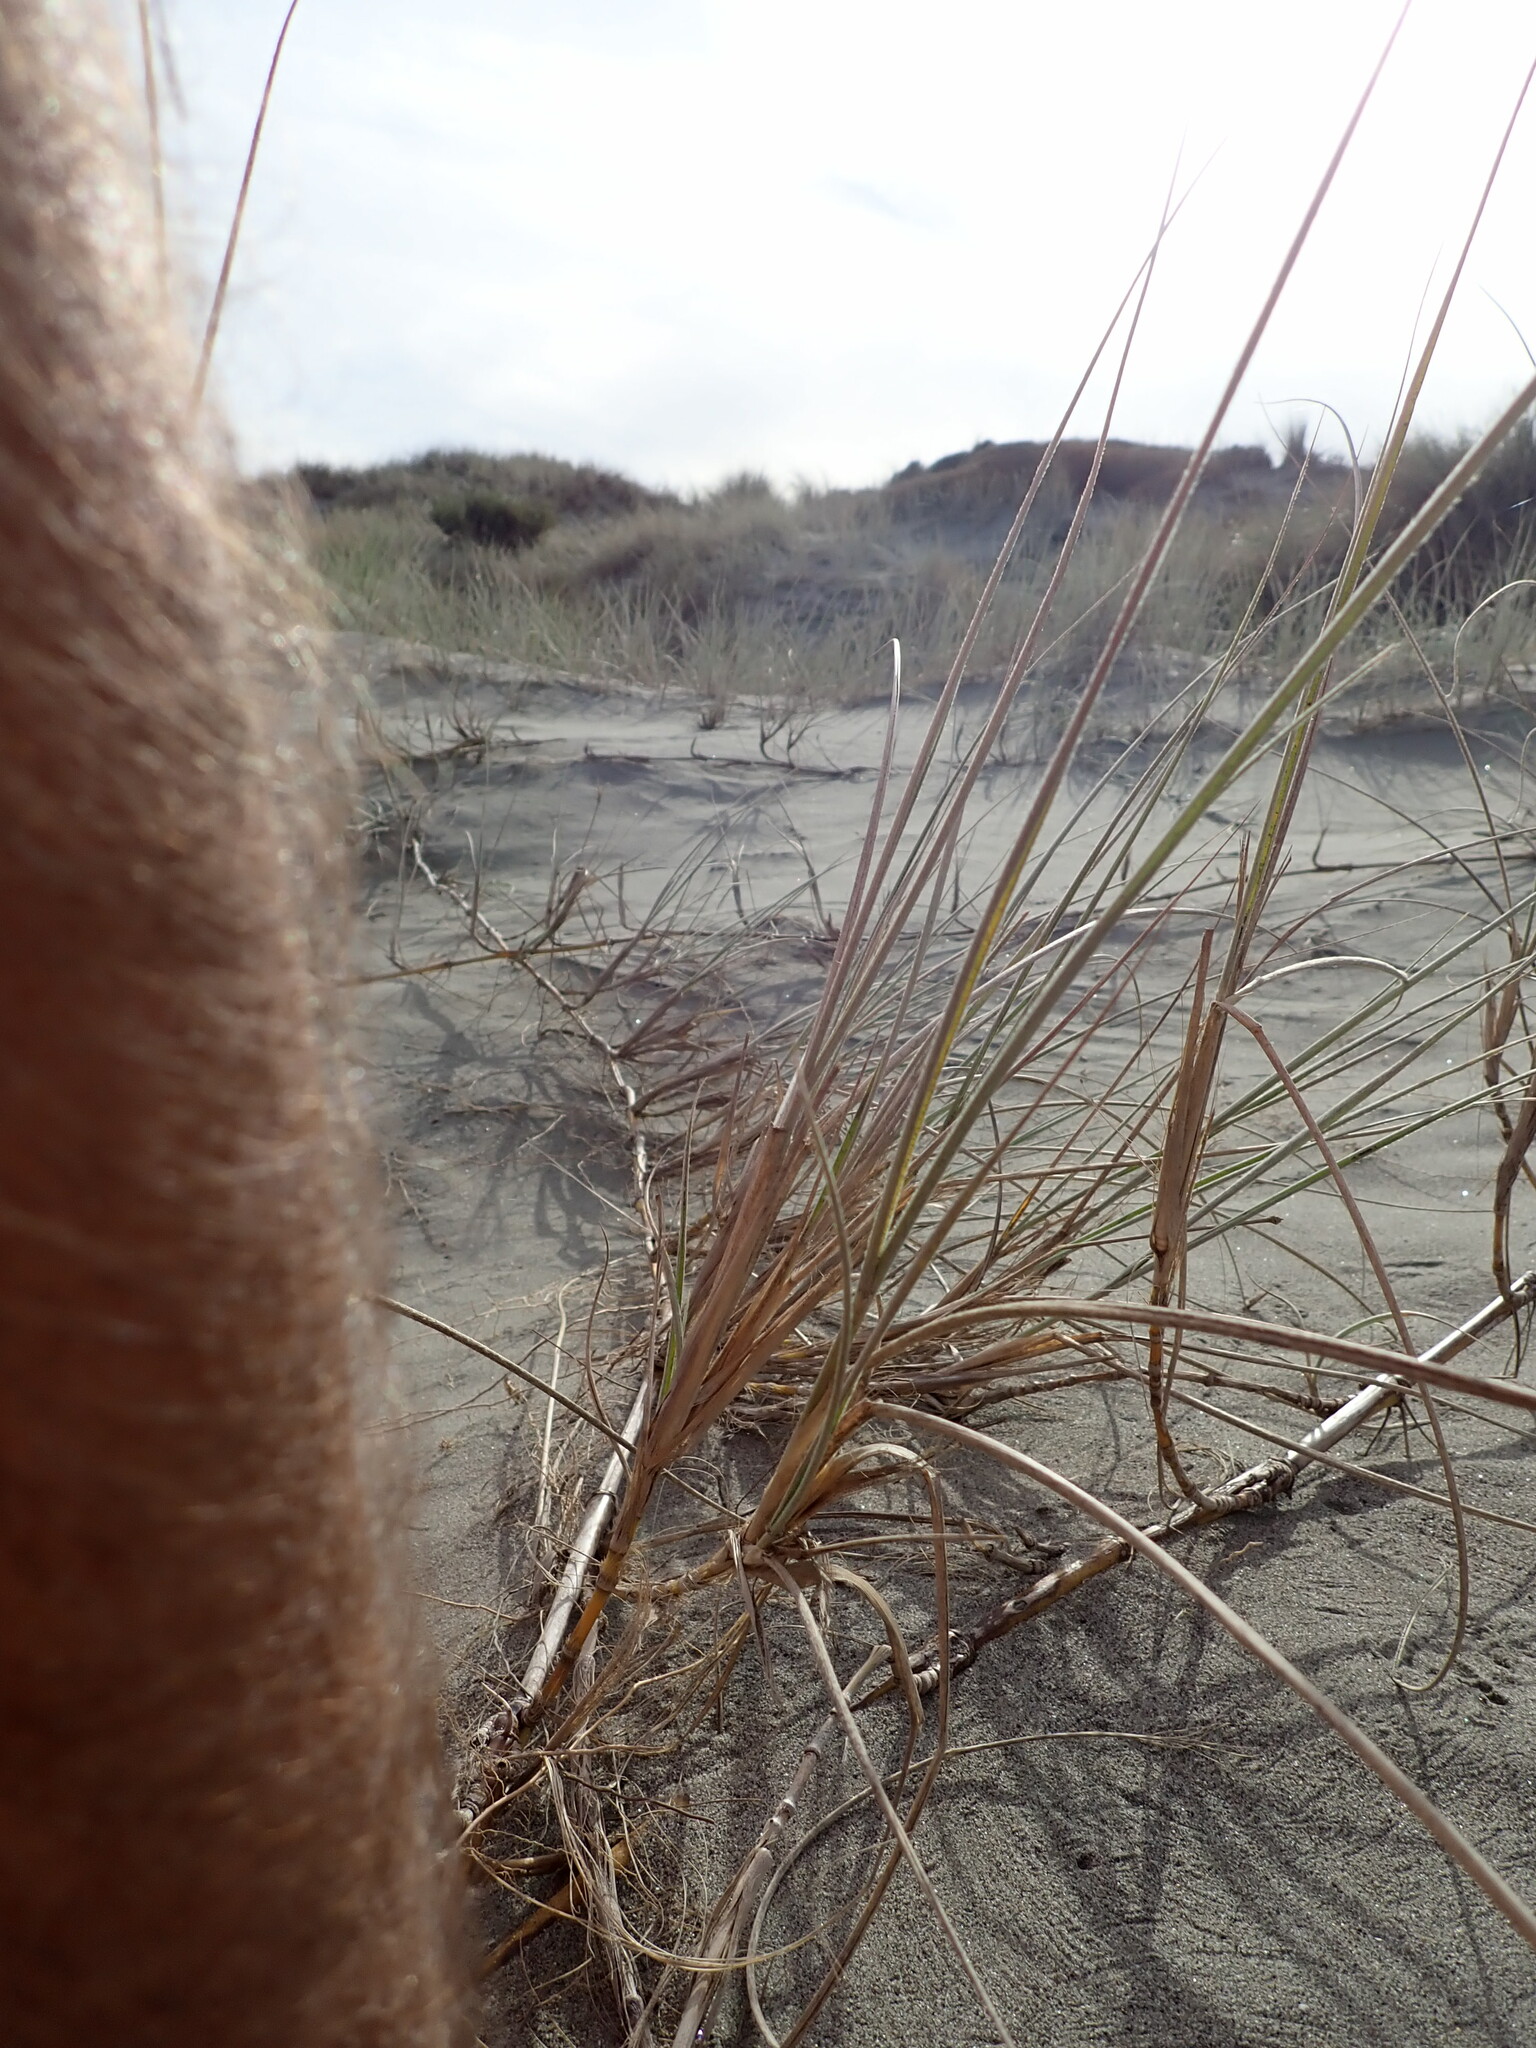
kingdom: Plantae
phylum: Tracheophyta
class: Liliopsida
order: Poales
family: Poaceae
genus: Spinifex
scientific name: Spinifex sericeus
